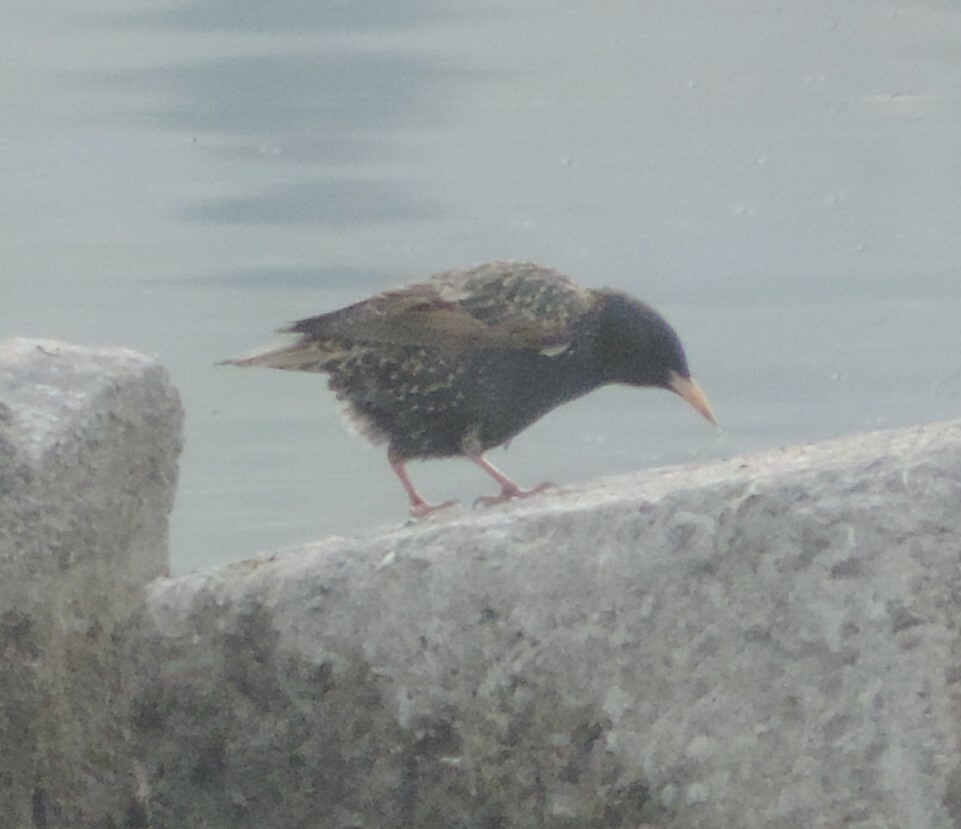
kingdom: Animalia
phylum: Chordata
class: Aves
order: Passeriformes
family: Sturnidae
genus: Sturnus
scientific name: Sturnus vulgaris
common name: Common starling
